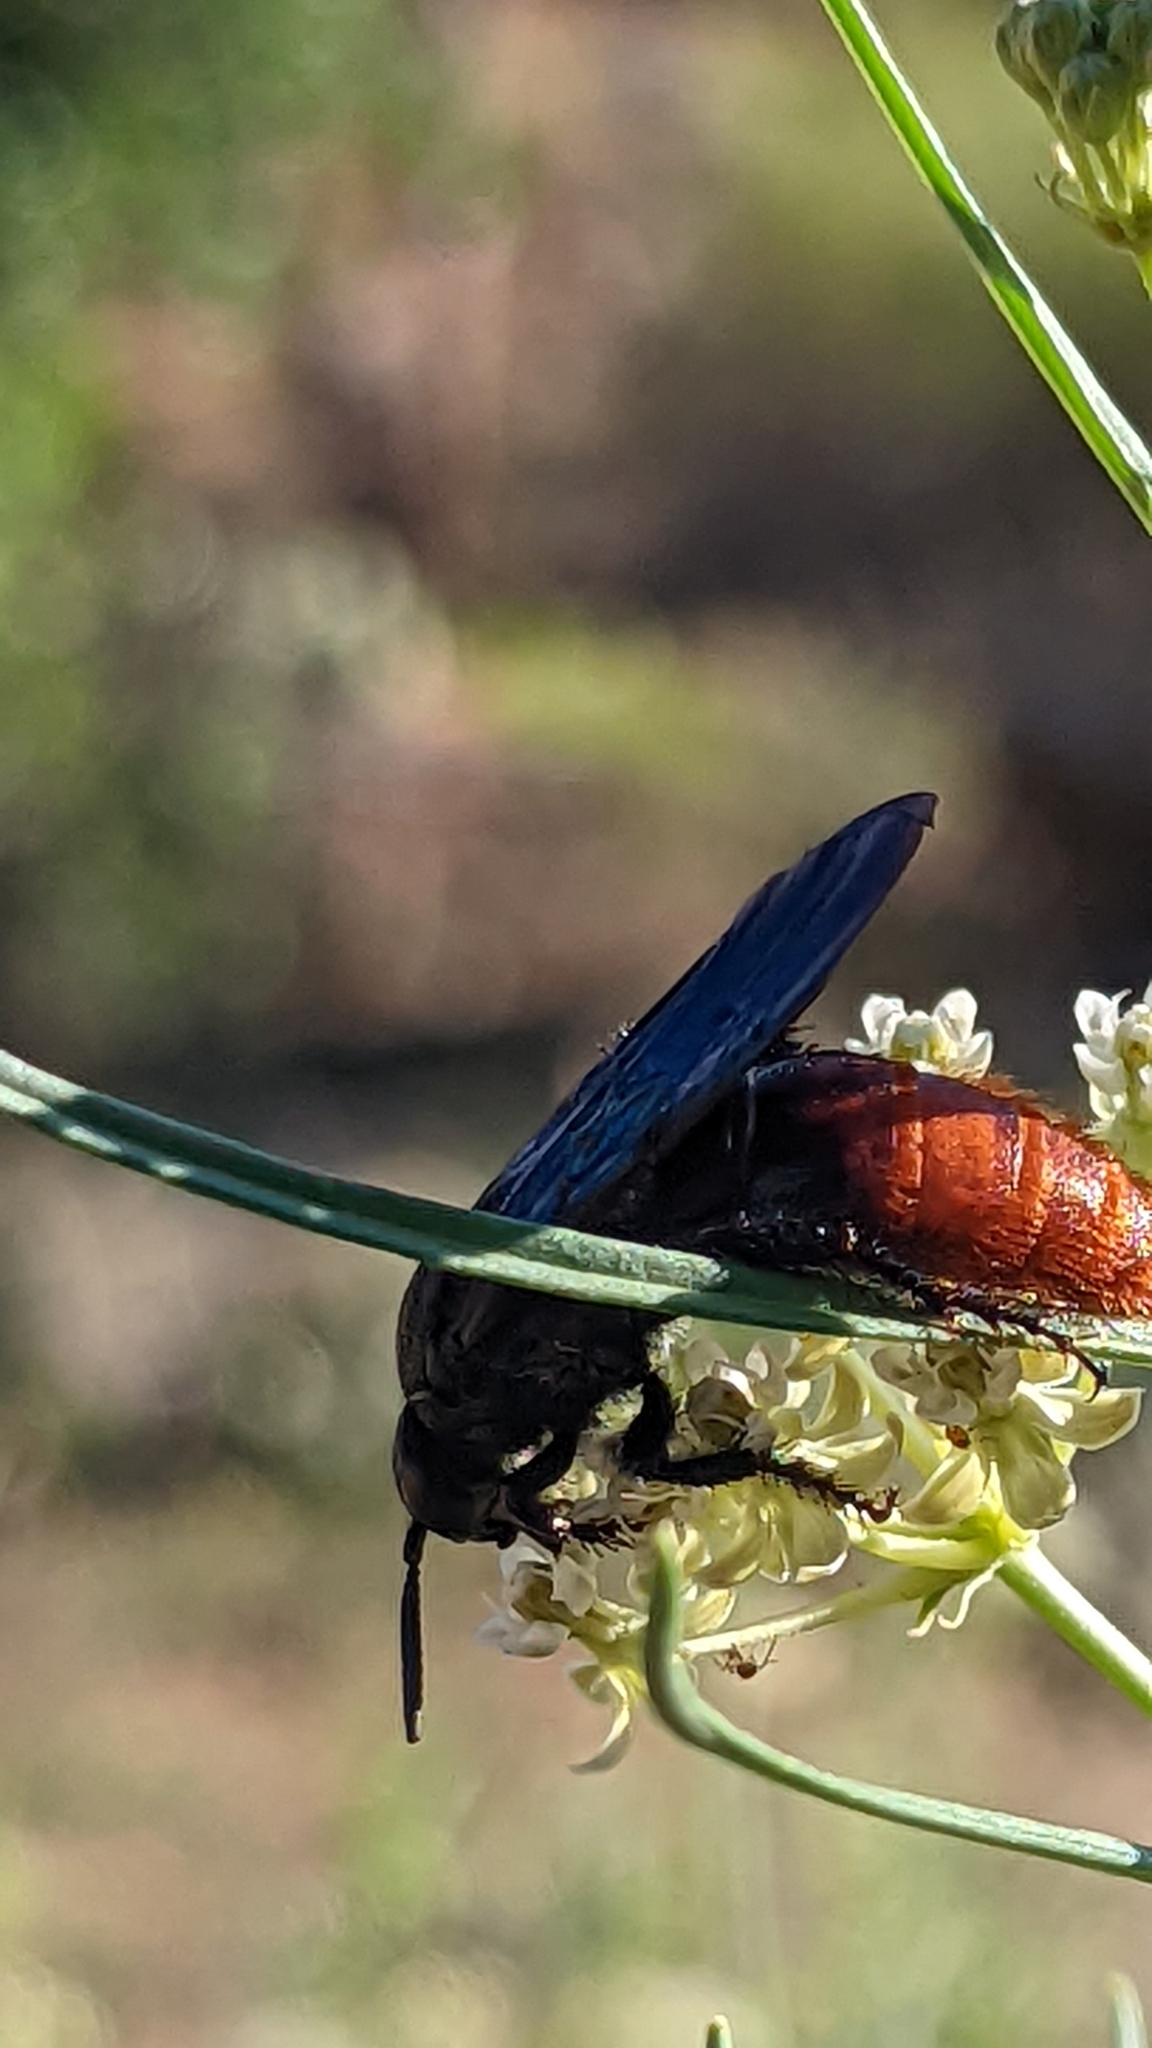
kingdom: Animalia
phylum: Arthropoda
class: Insecta
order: Hymenoptera
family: Scoliidae
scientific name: Scoliidae
